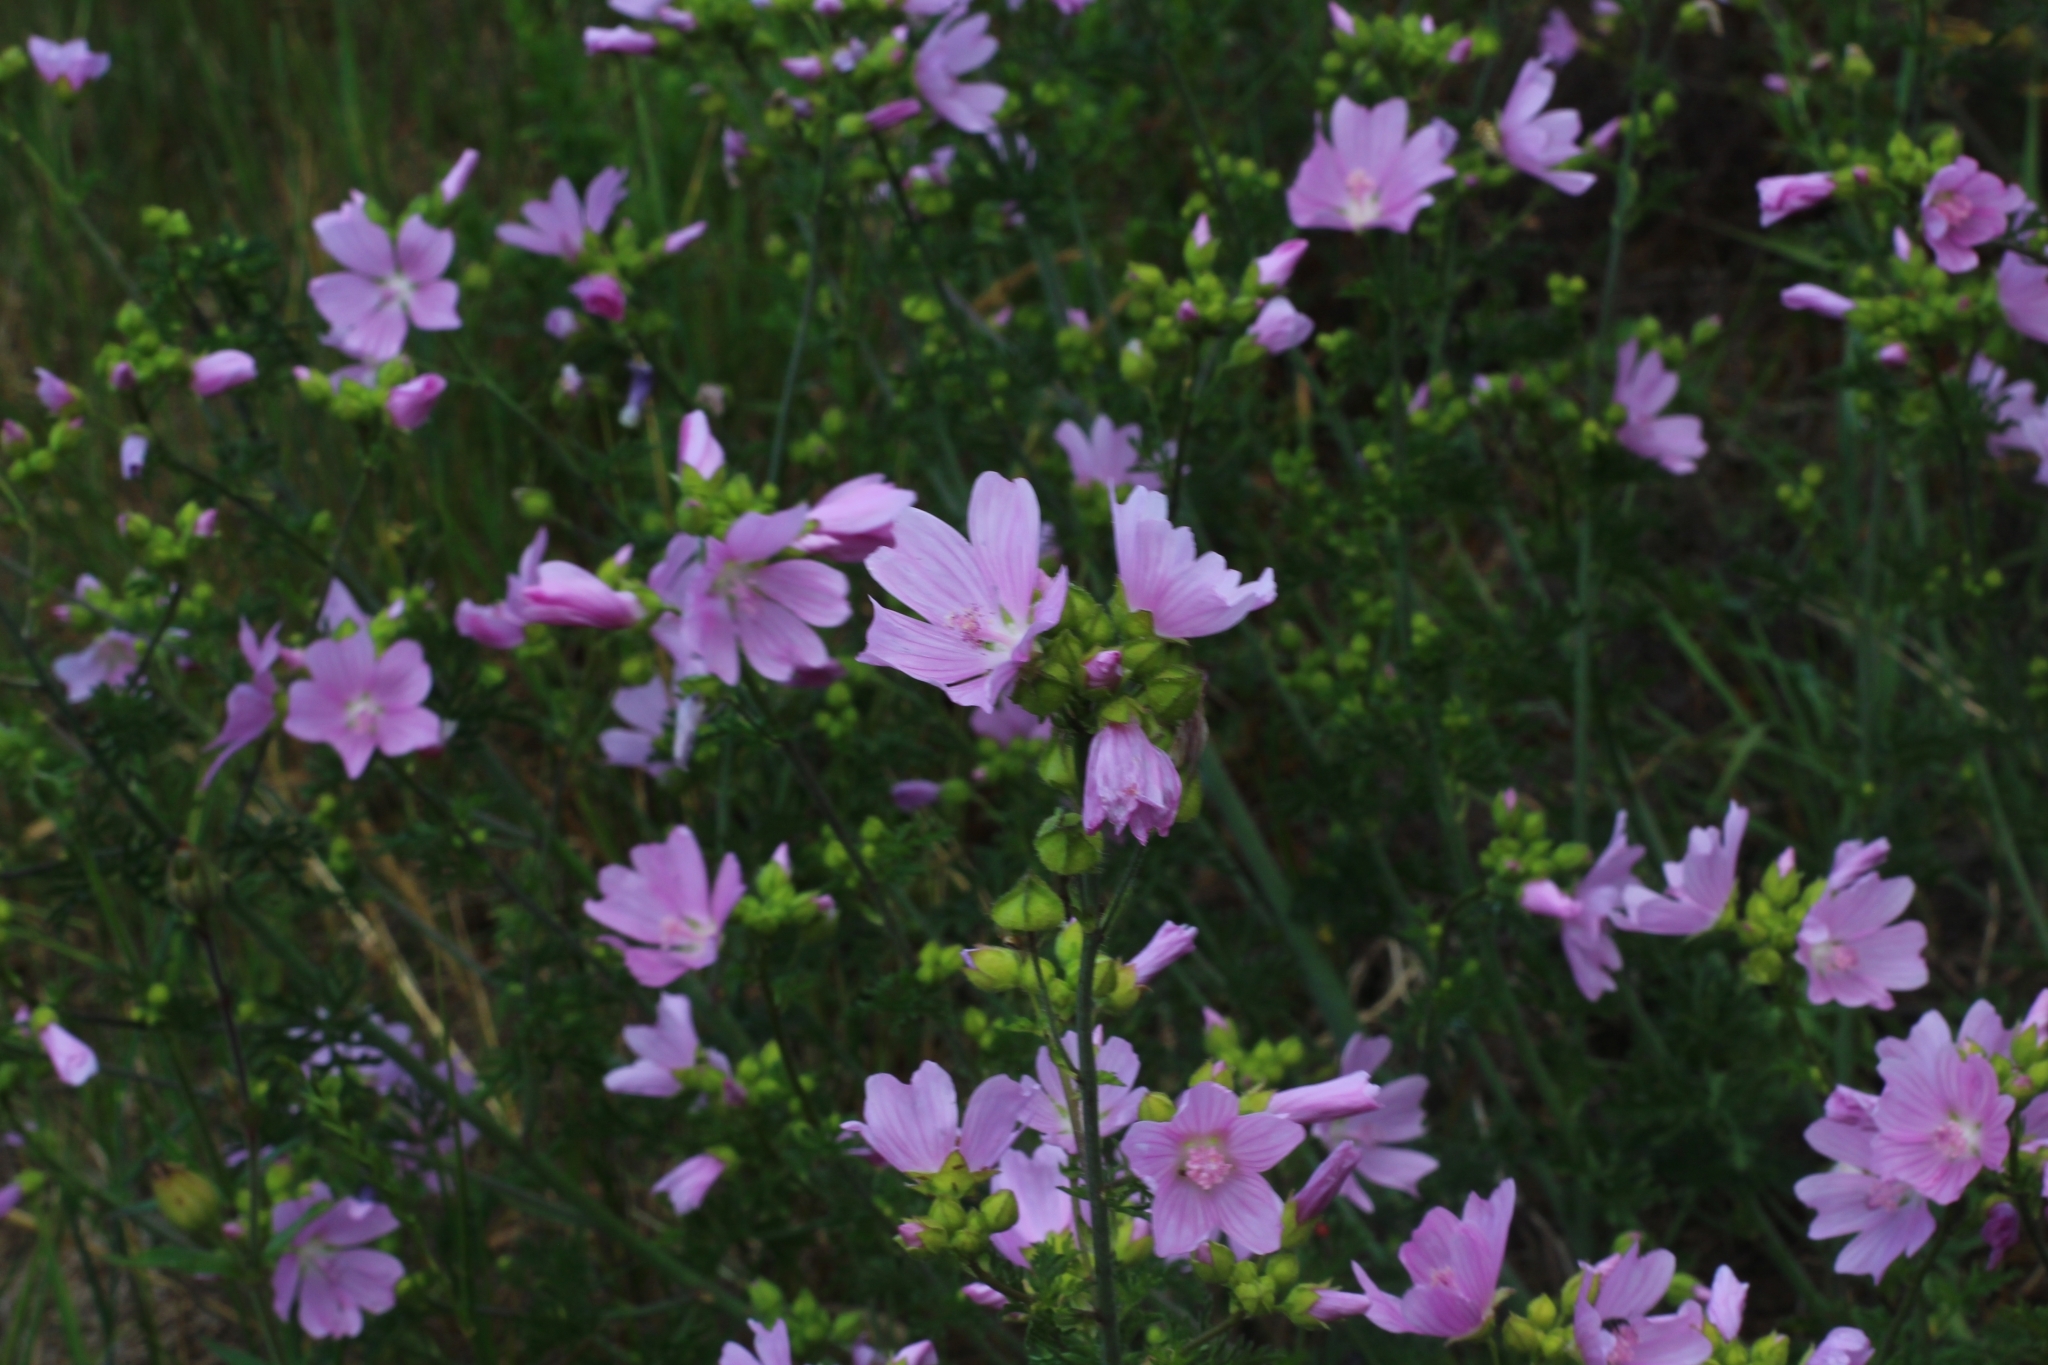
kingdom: Plantae
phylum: Tracheophyta
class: Magnoliopsida
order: Malvales
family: Malvaceae
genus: Malva
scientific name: Malva moschata
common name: Musk mallow
